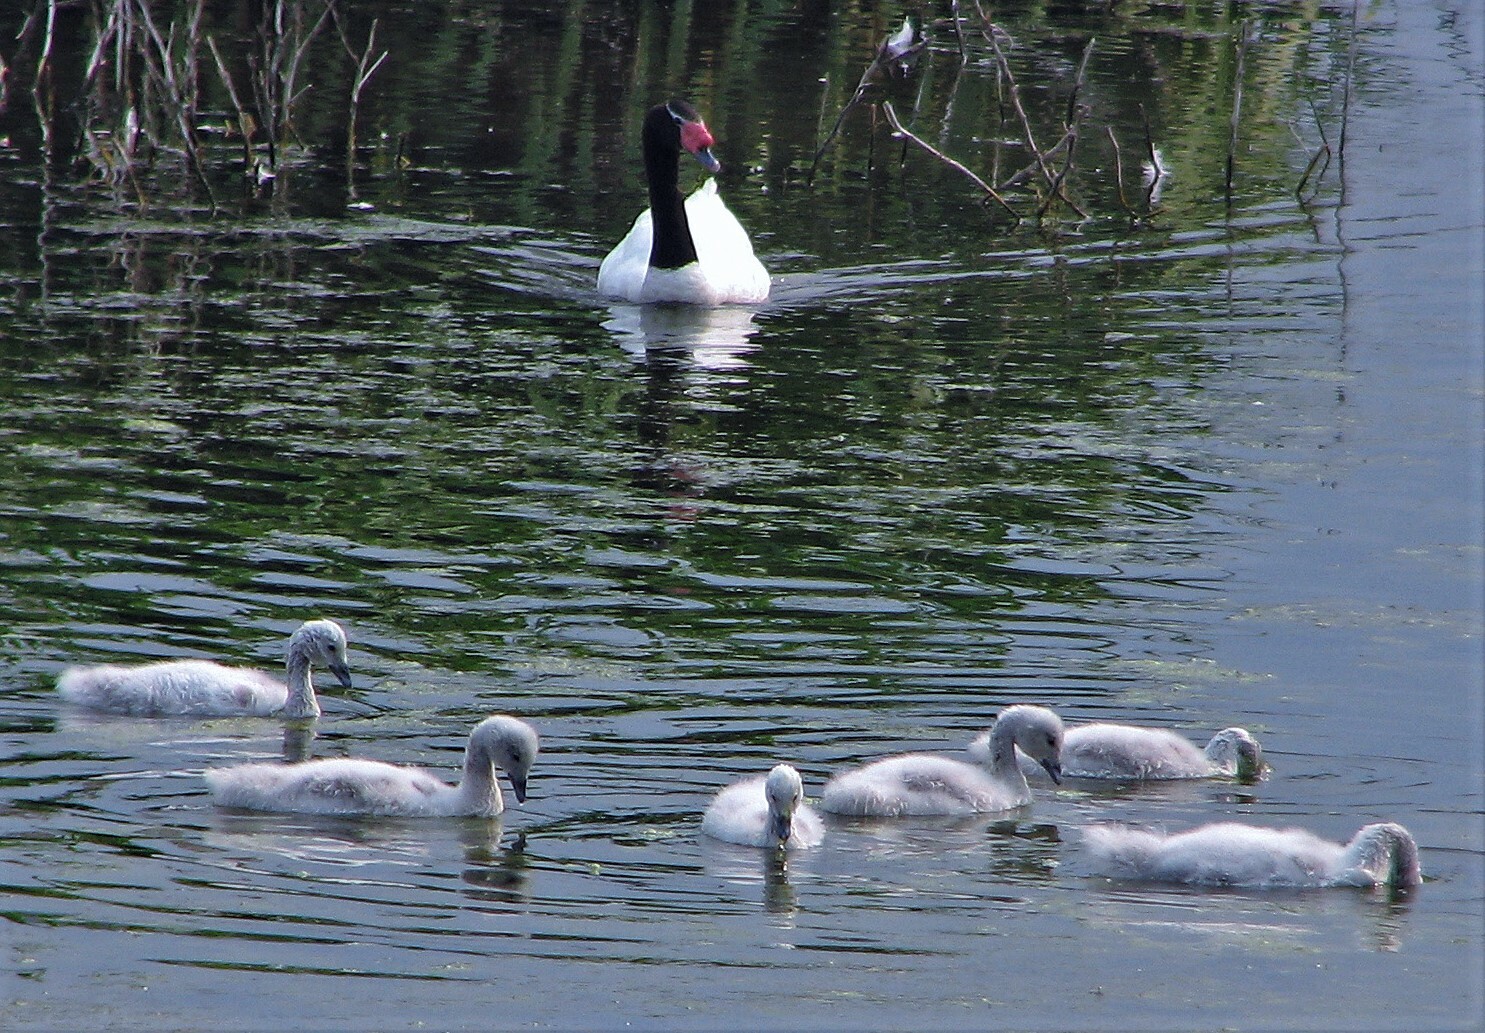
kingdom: Animalia
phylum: Chordata
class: Aves
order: Anseriformes
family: Anatidae
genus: Cygnus
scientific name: Cygnus melancoryphus
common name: Black-necked swan
